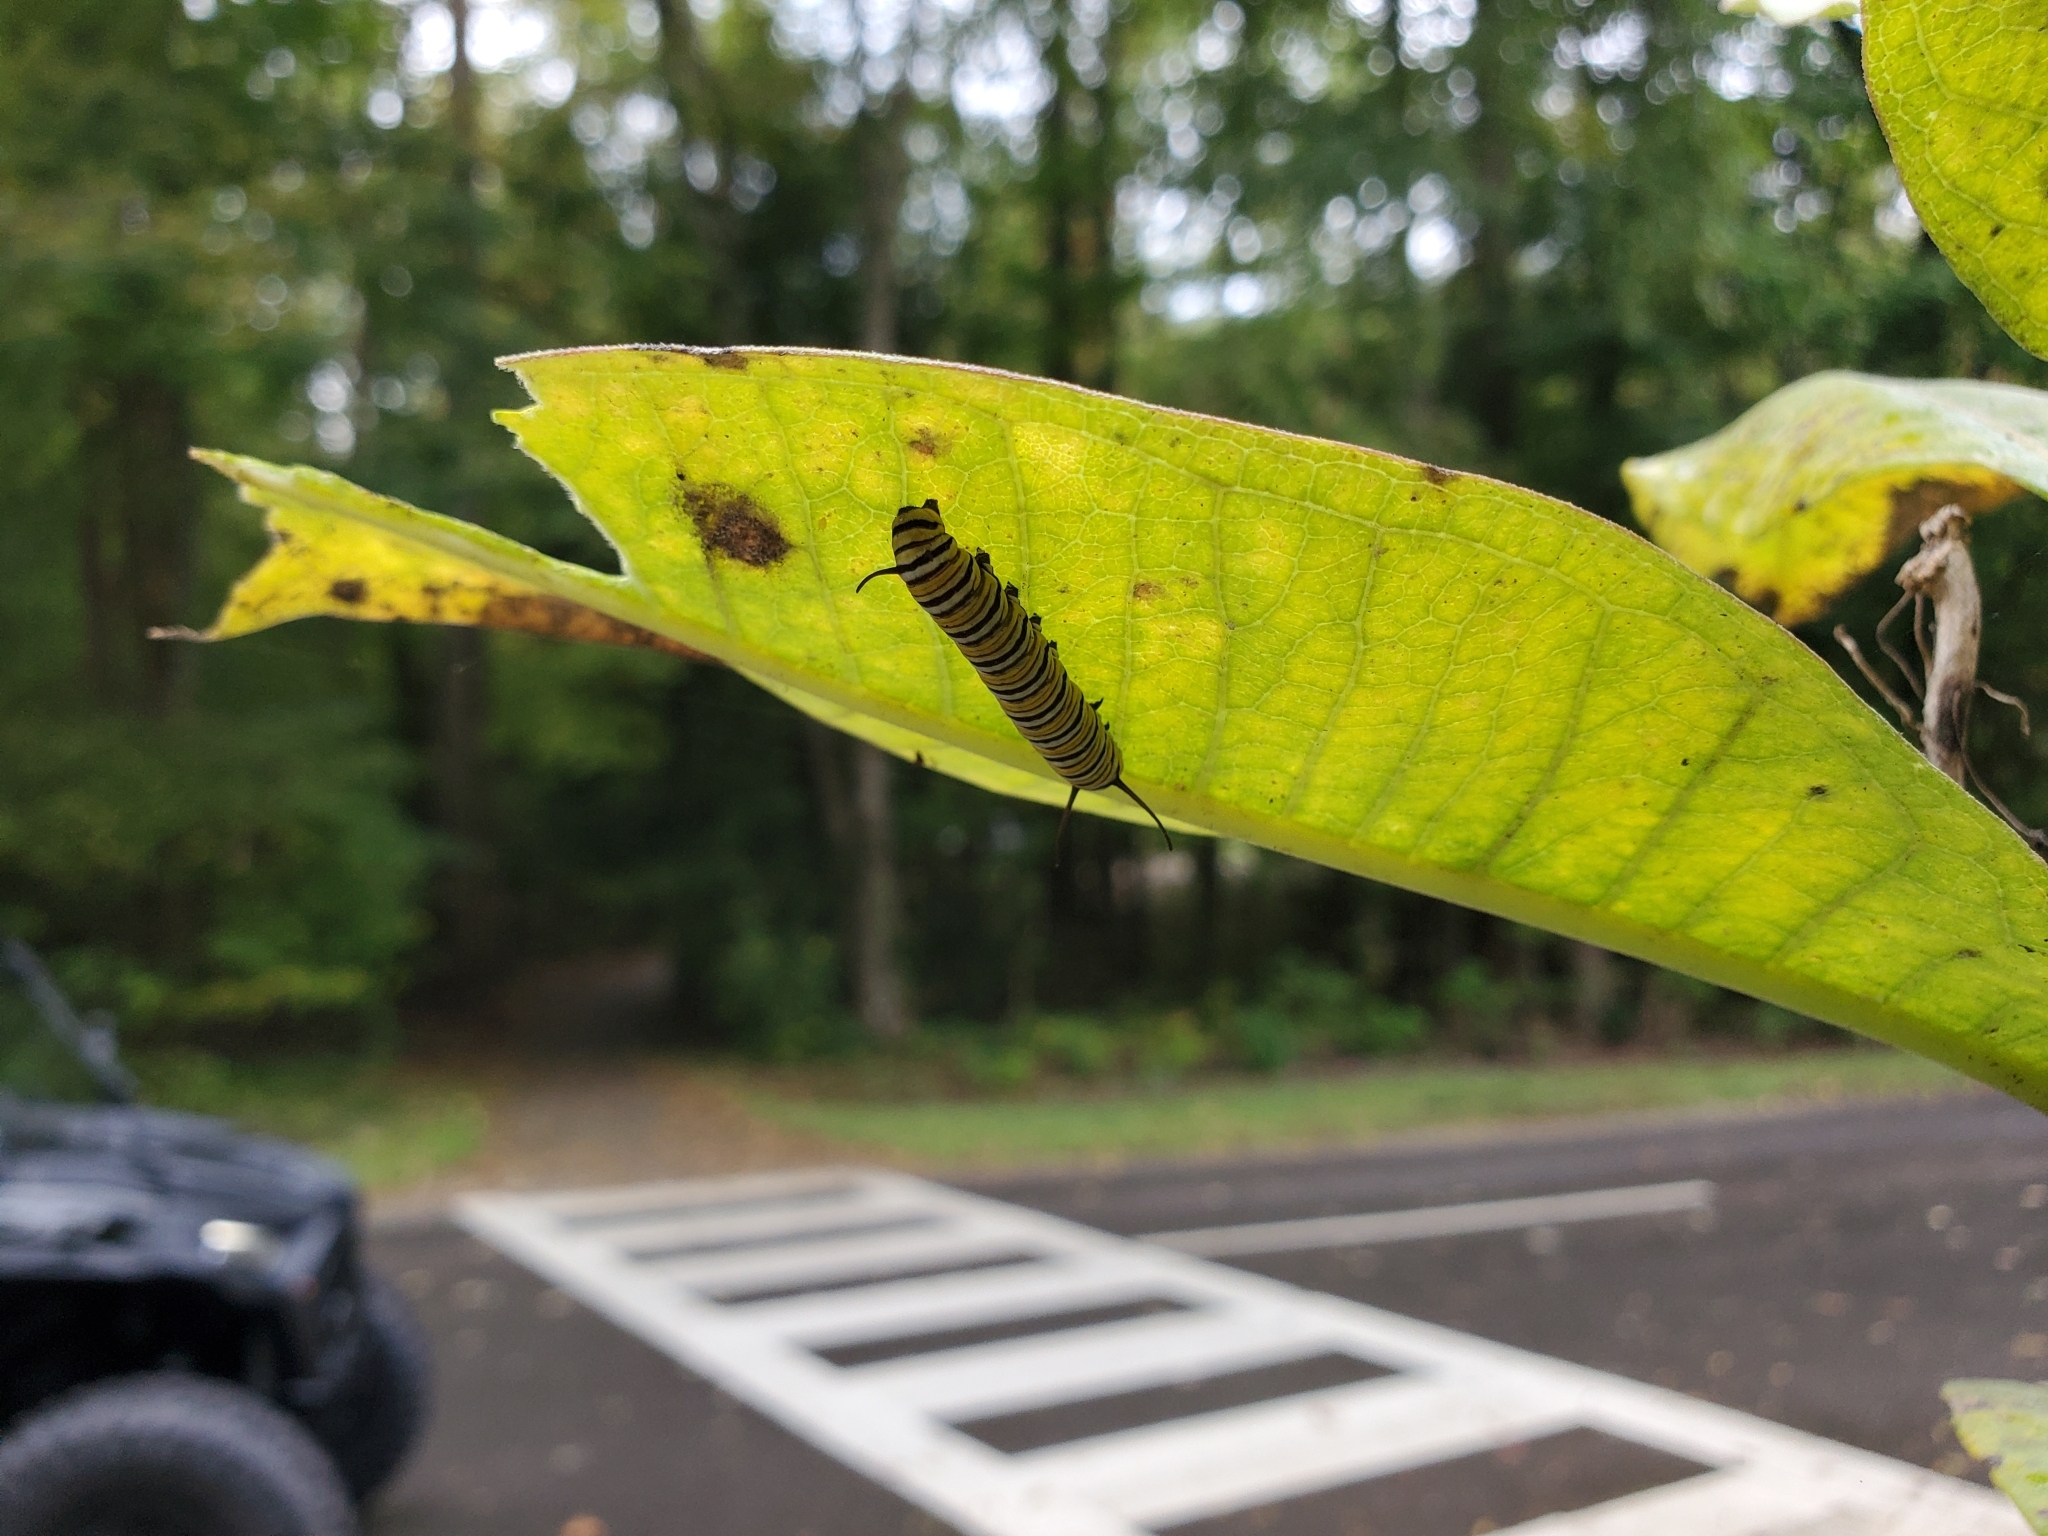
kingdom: Animalia
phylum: Arthropoda
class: Insecta
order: Lepidoptera
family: Nymphalidae
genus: Danaus
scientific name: Danaus plexippus
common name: Monarch
